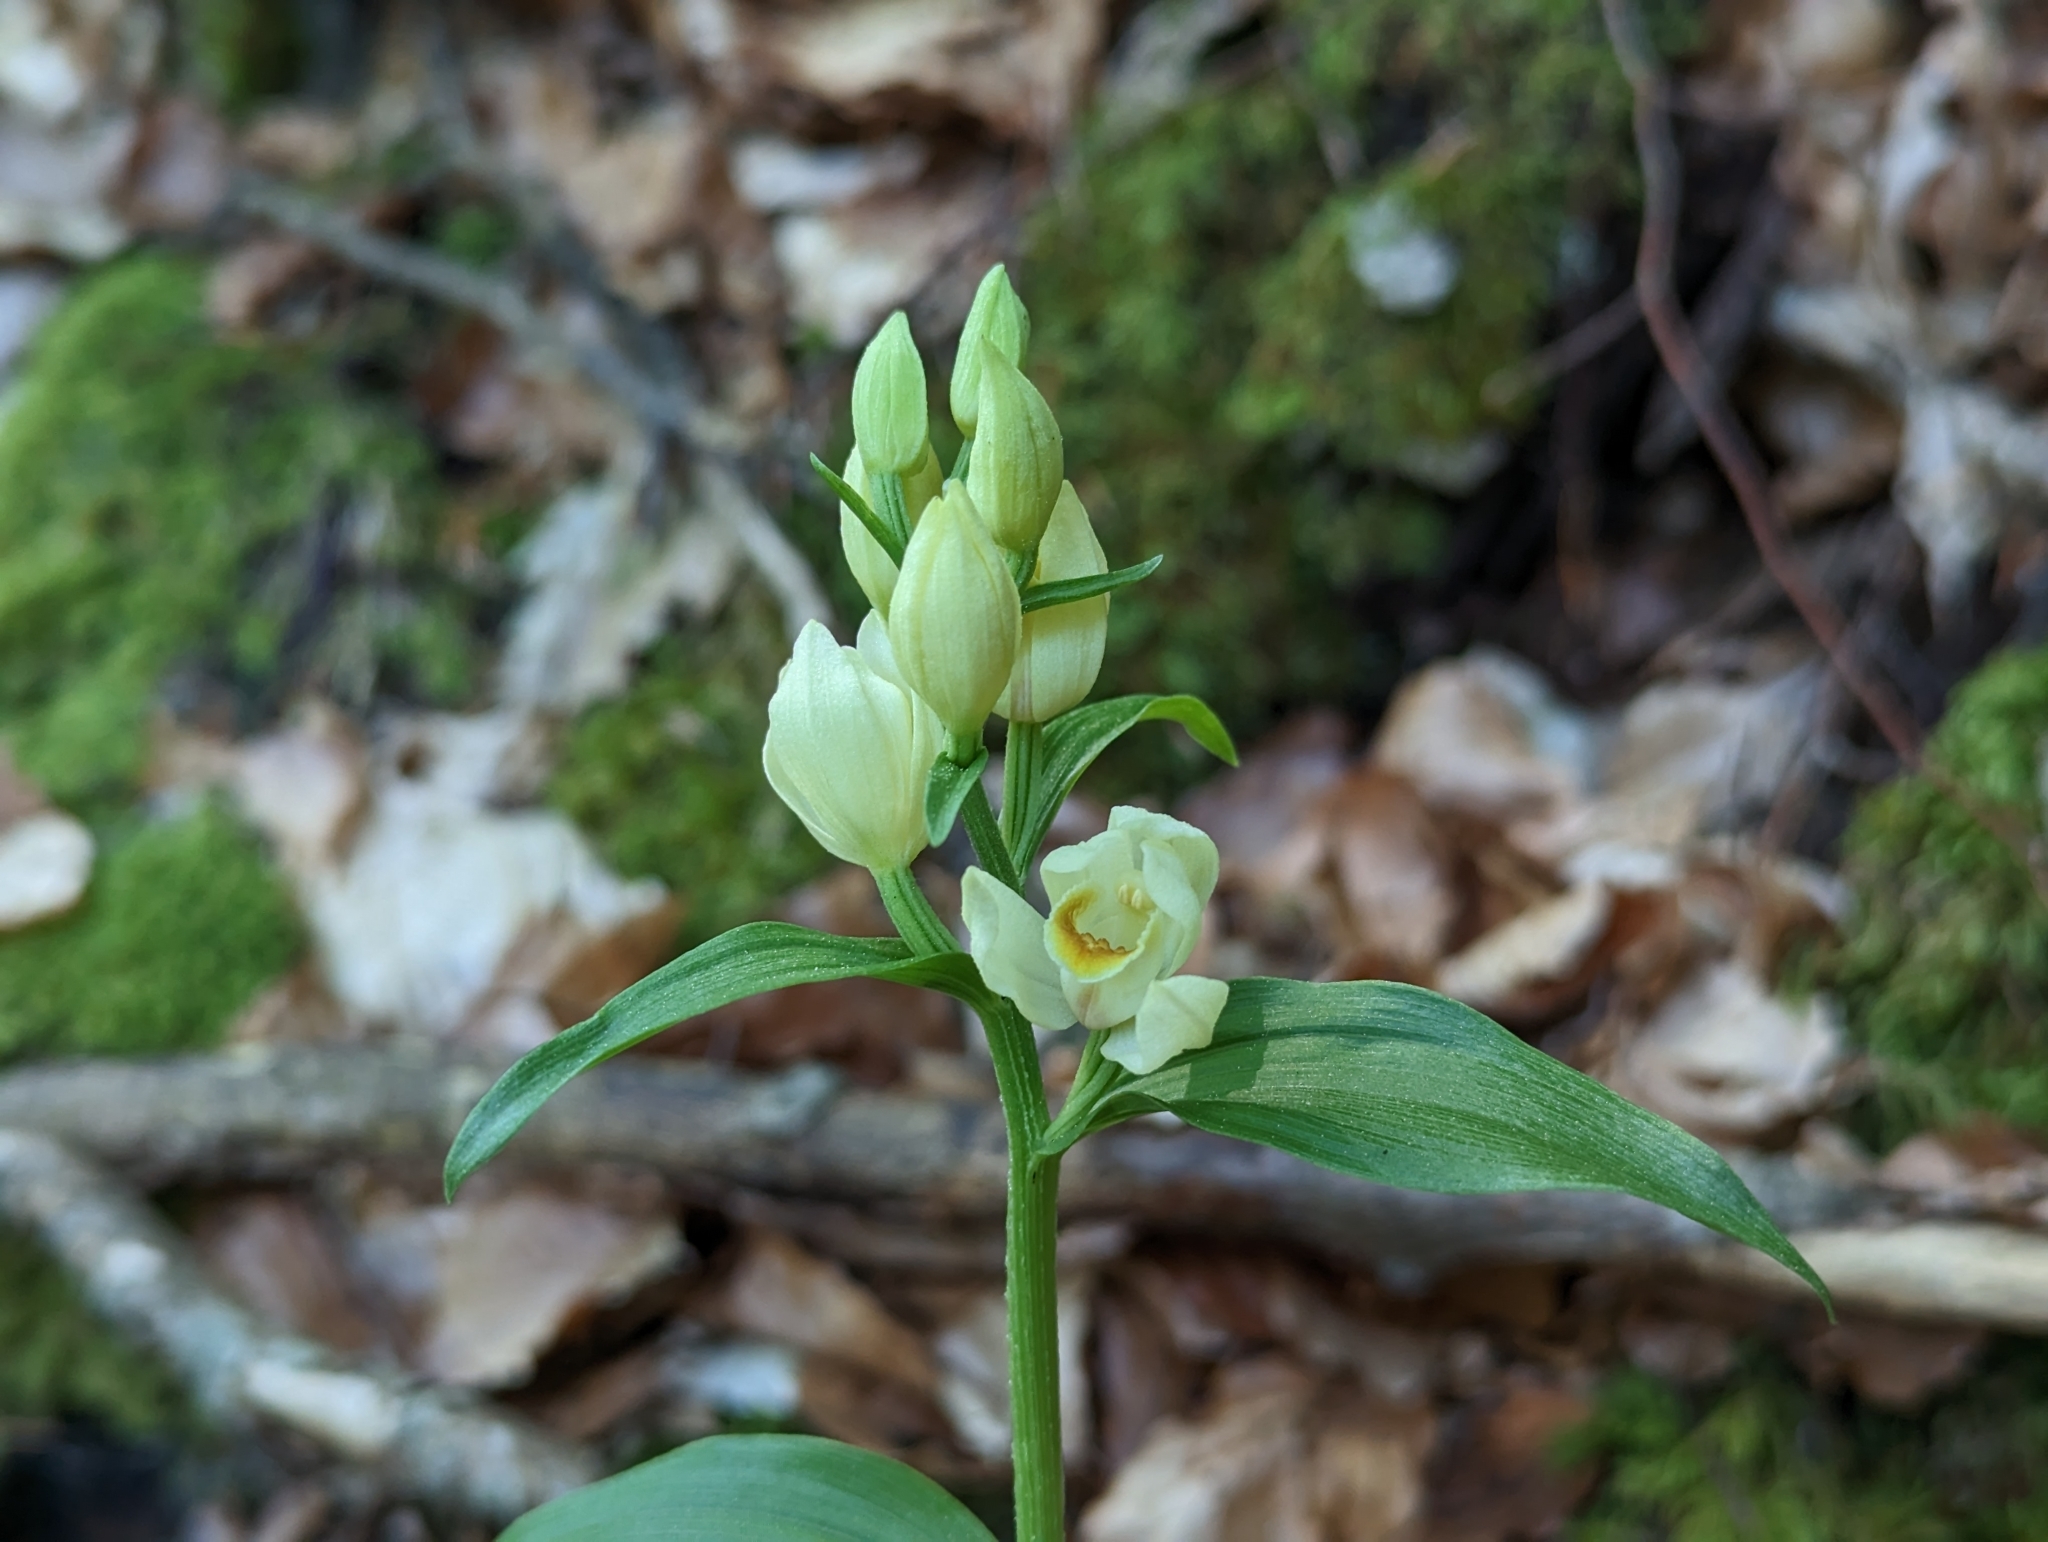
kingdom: Plantae
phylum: Tracheophyta
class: Liliopsida
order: Asparagales
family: Orchidaceae
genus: Cephalanthera
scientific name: Cephalanthera damasonium
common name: White helleborine
